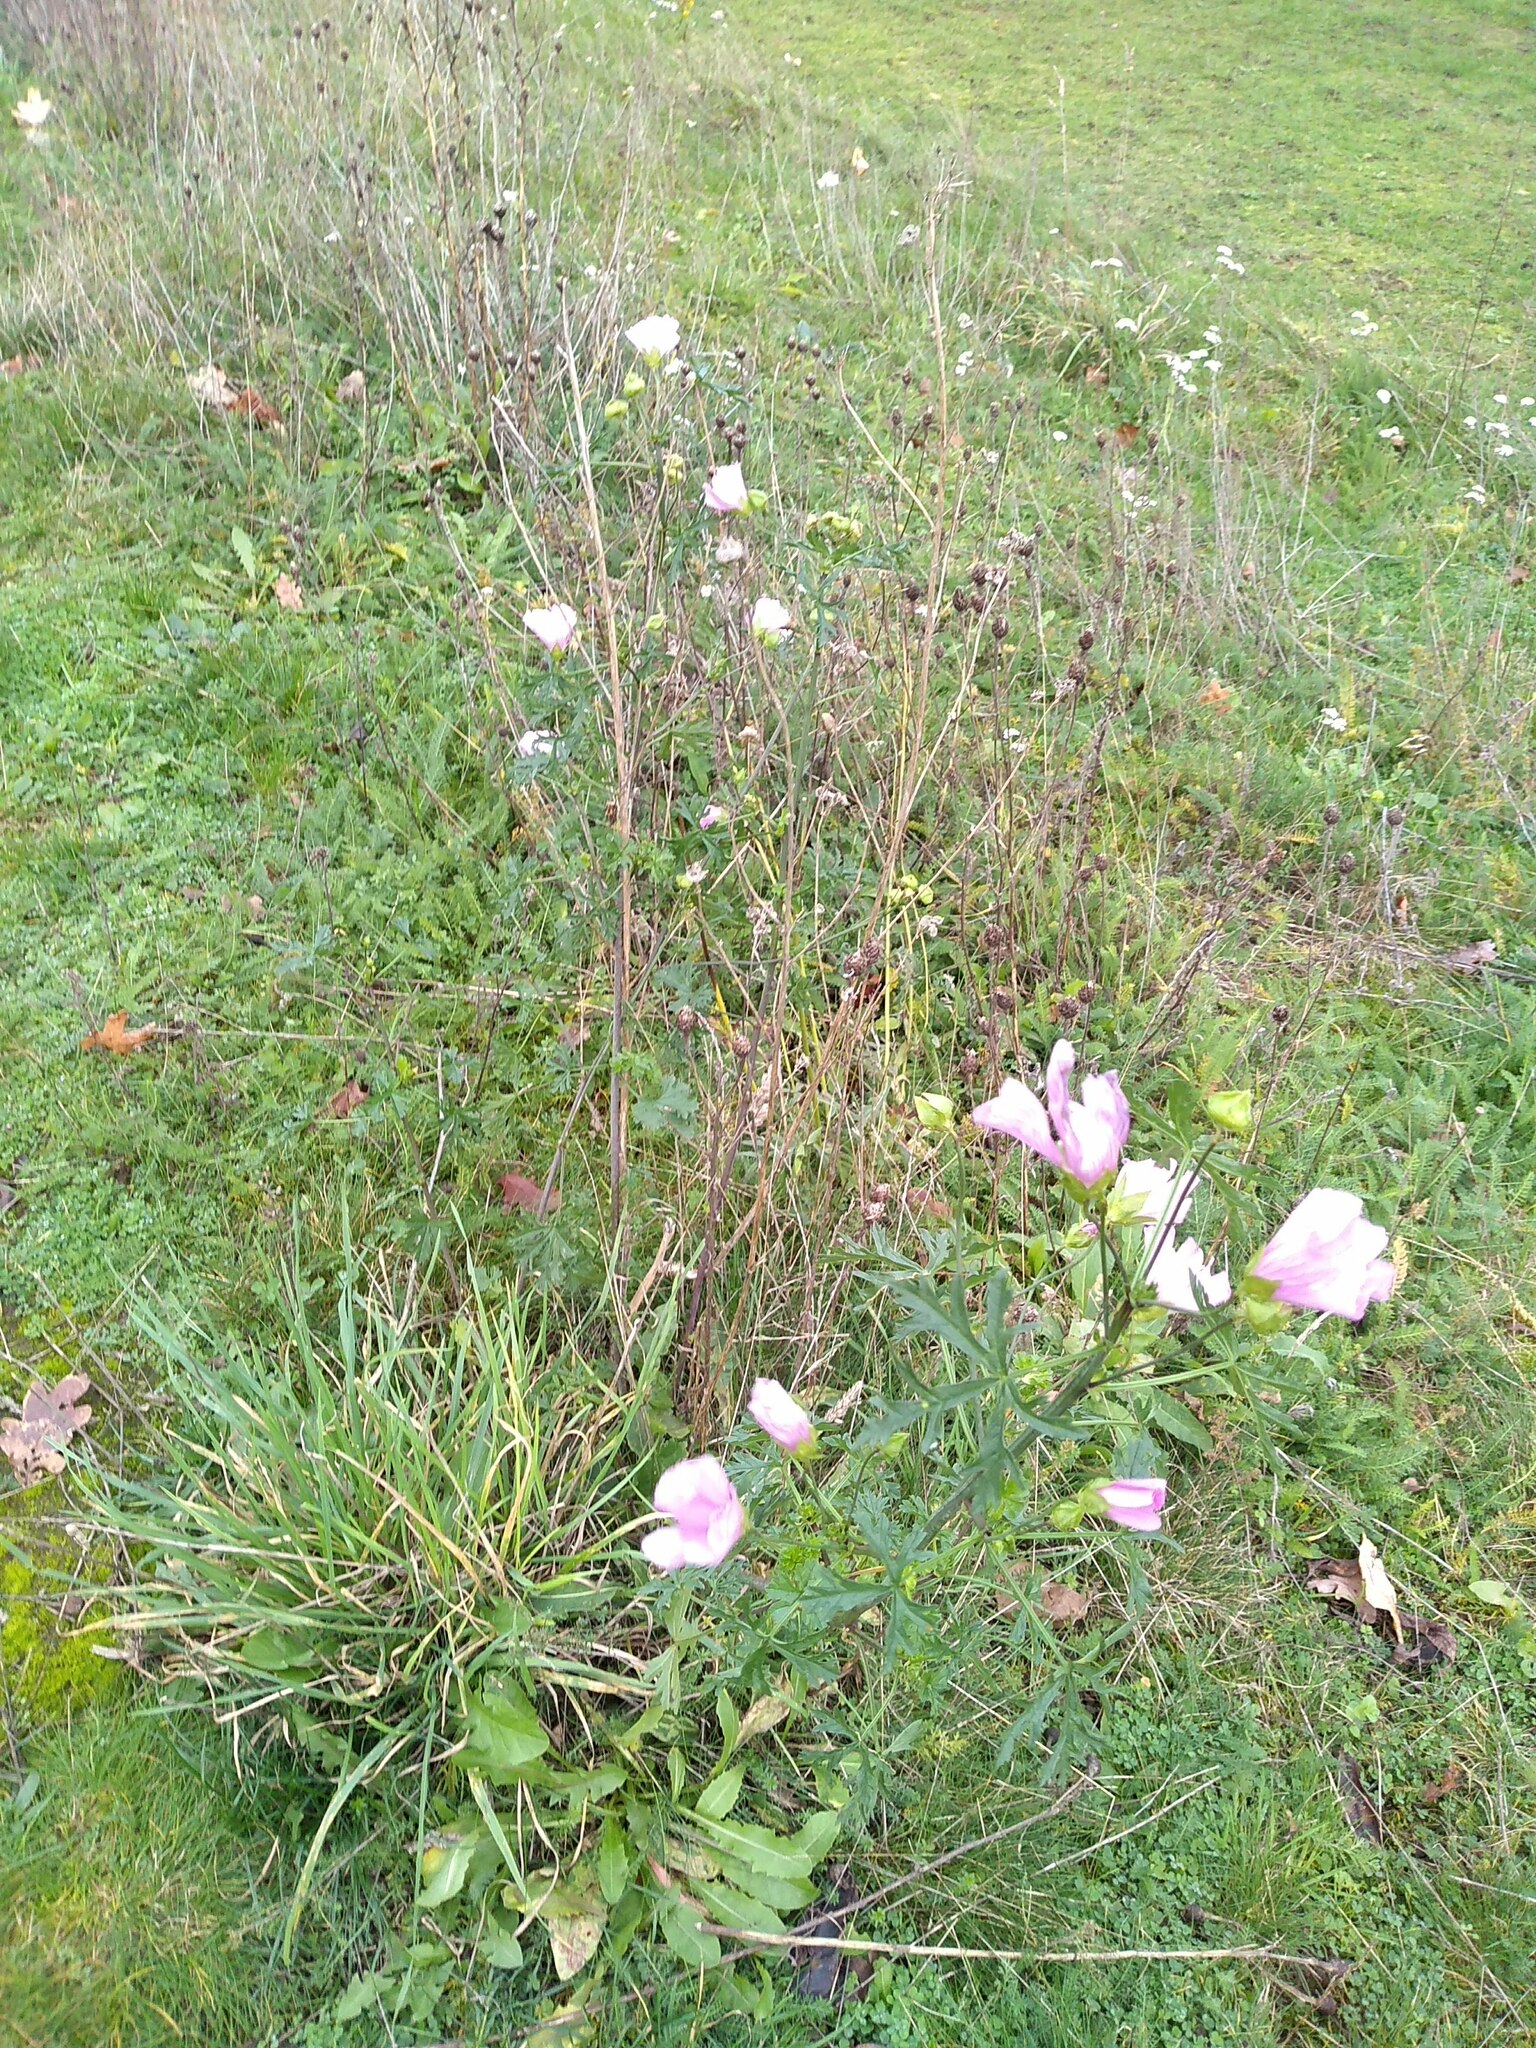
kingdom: Plantae
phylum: Tracheophyta
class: Magnoliopsida
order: Malvales
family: Malvaceae
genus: Malva
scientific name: Malva moschata
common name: Musk mallow
